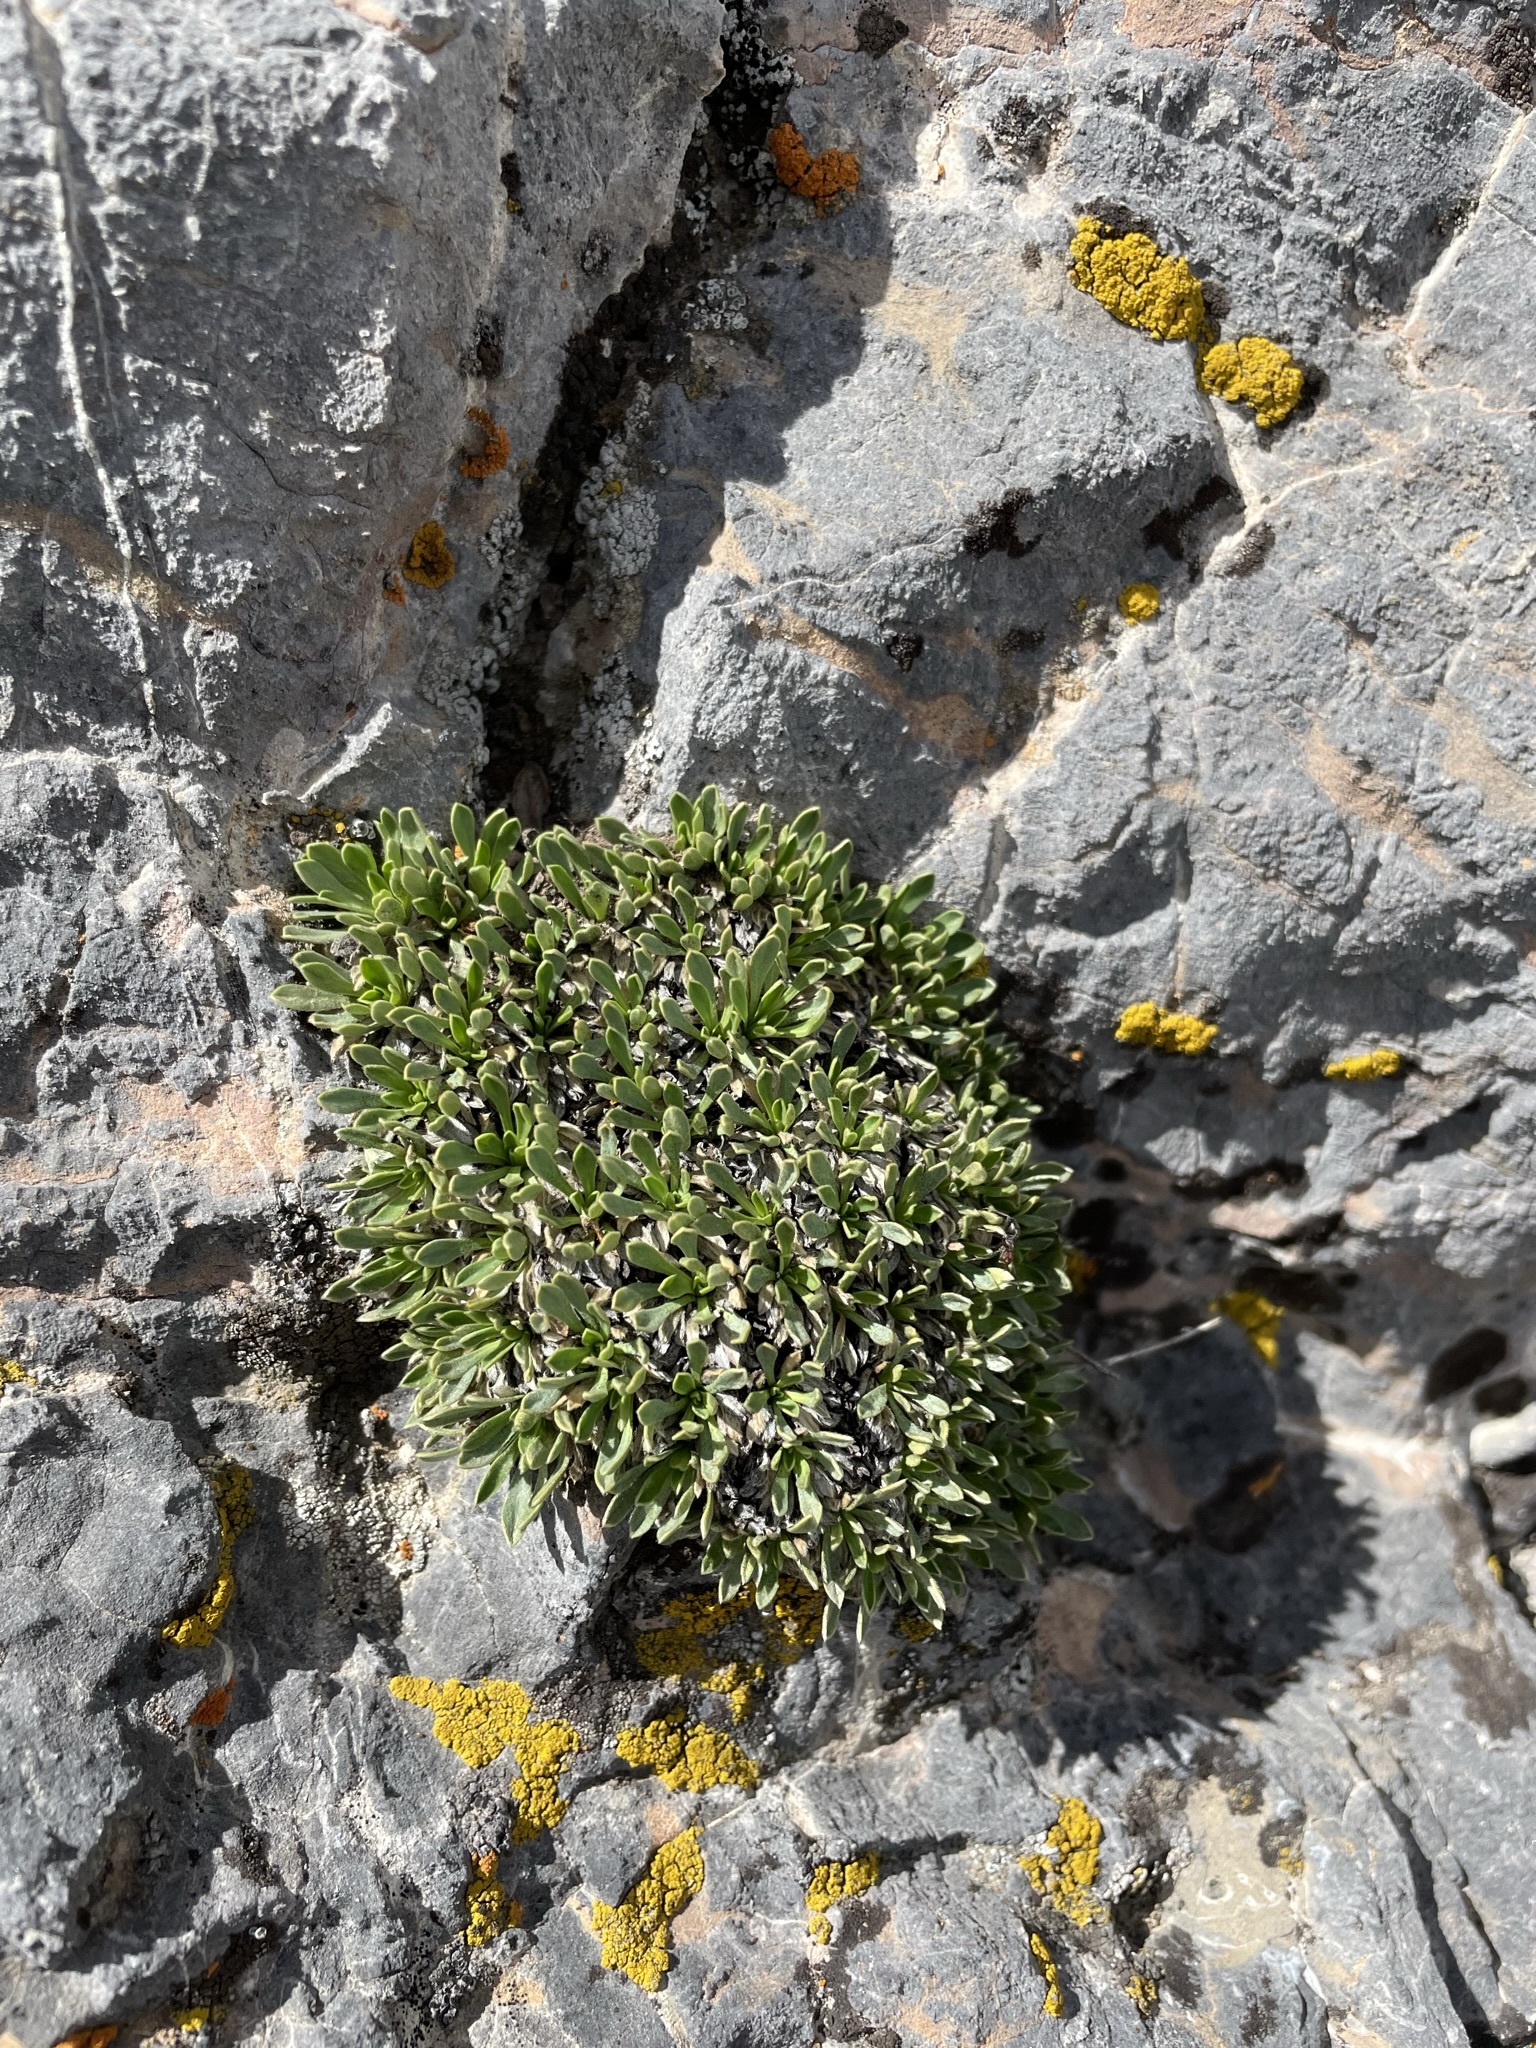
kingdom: Plantae
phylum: Tracheophyta
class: Magnoliopsida
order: Rosales
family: Rosaceae
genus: Petrophytum
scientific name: Petrophytum caespitosum
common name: Mat rockspirea
